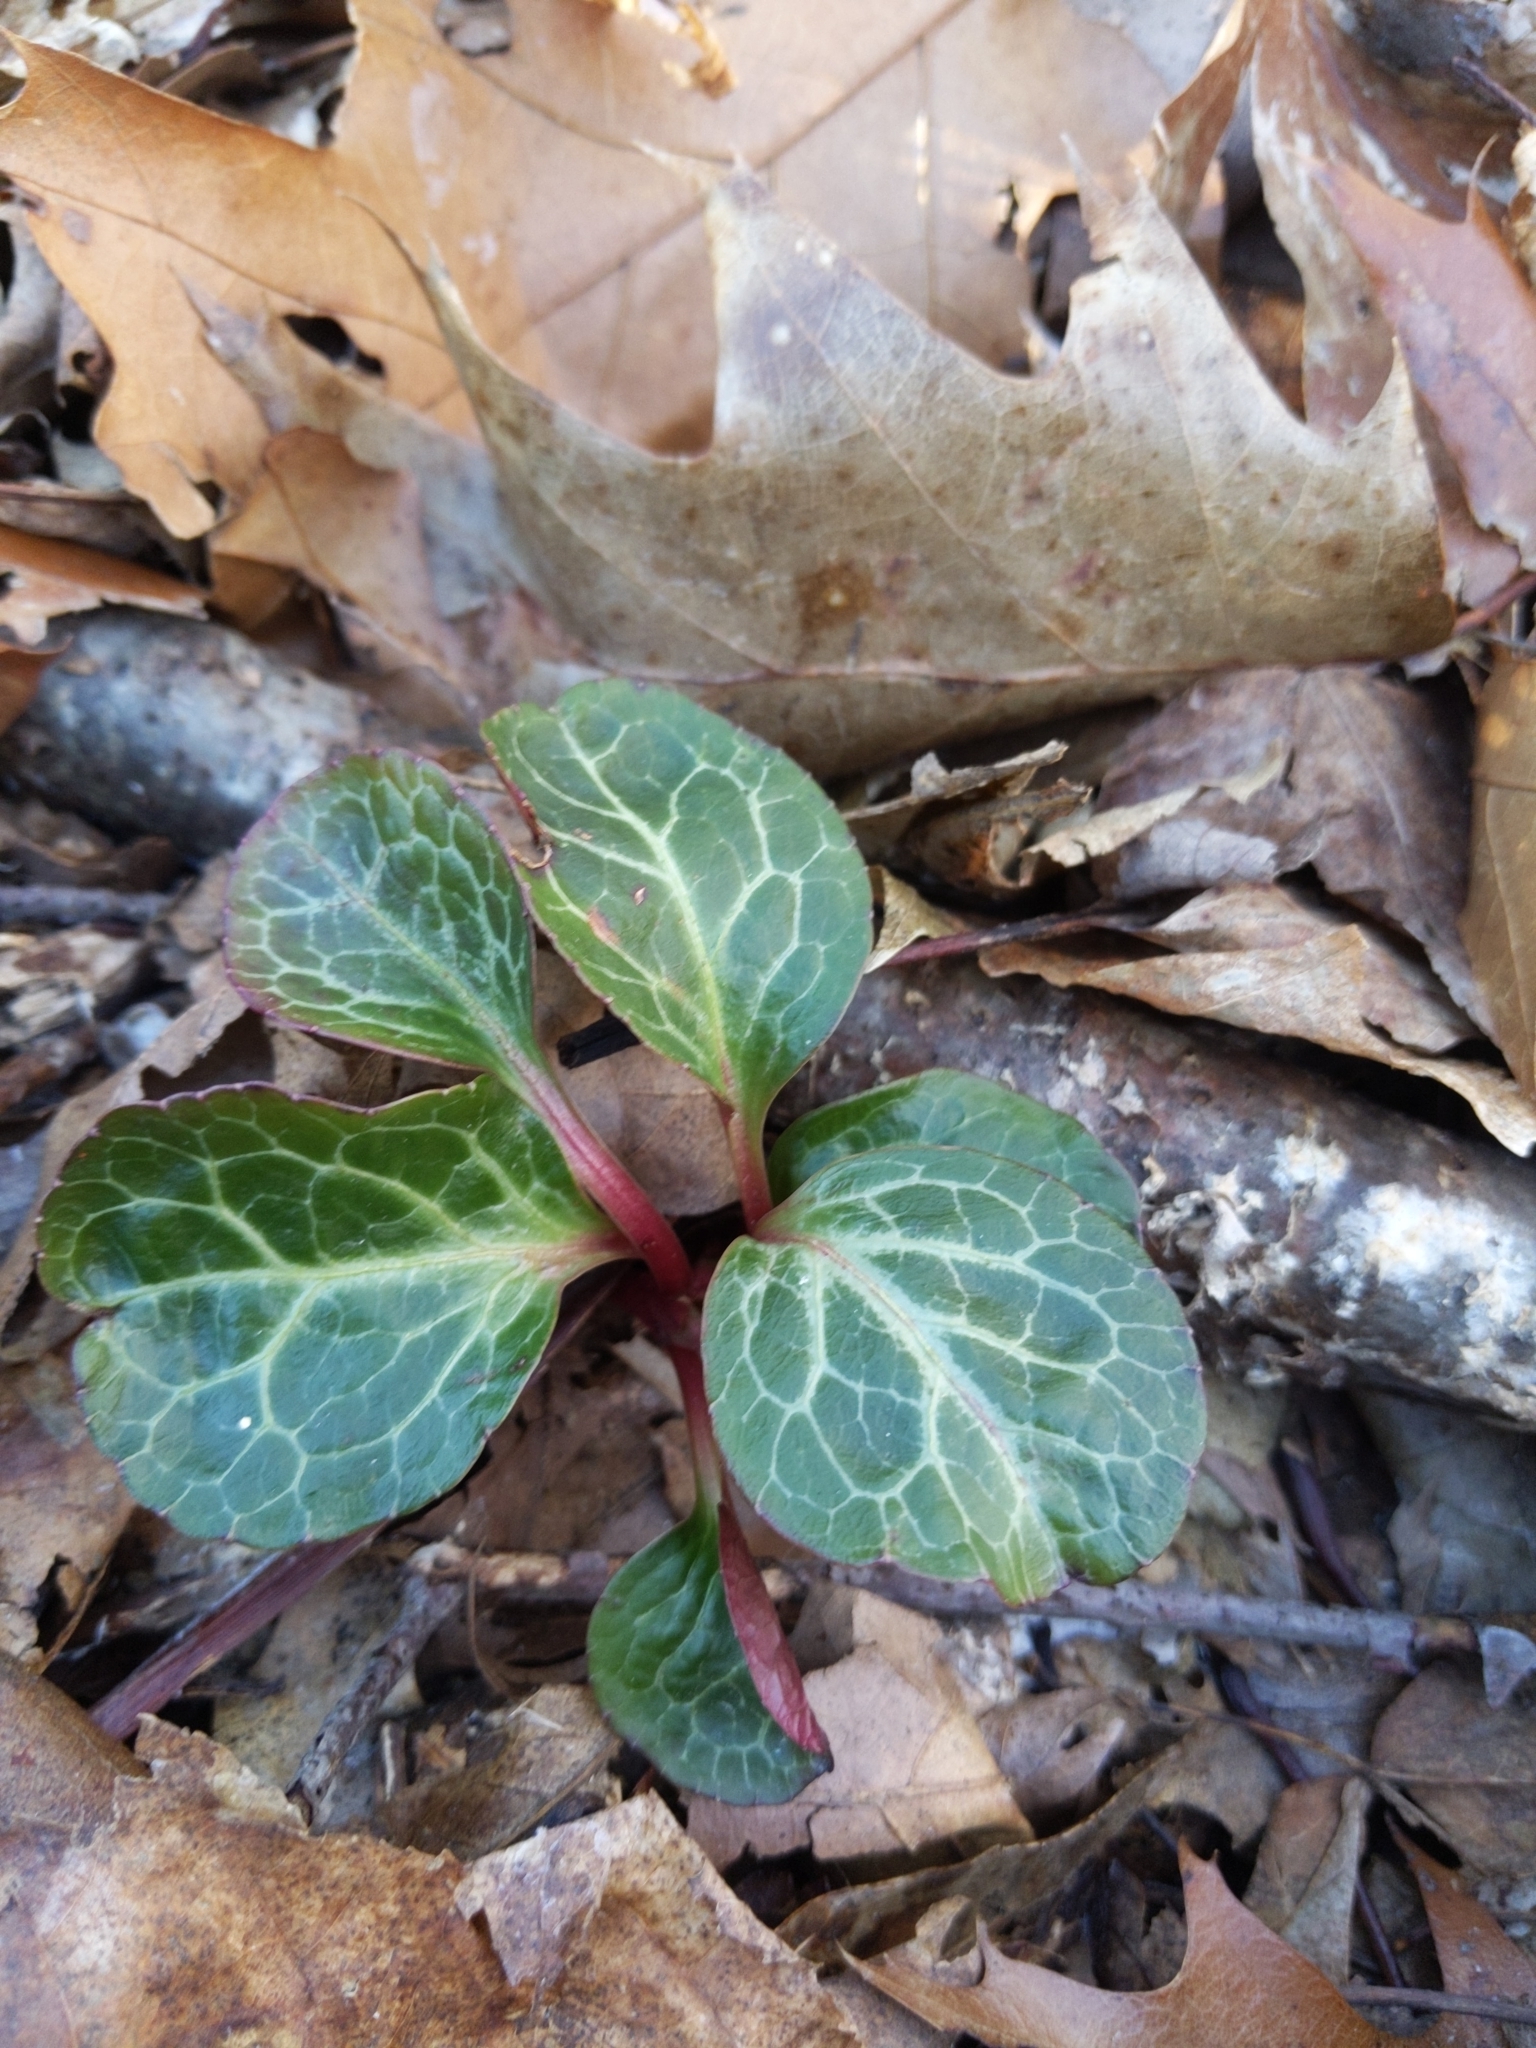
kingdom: Plantae
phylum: Tracheophyta
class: Magnoliopsida
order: Ericales
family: Ericaceae
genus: Pyrola
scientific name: Pyrola americana
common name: American wintergreen
